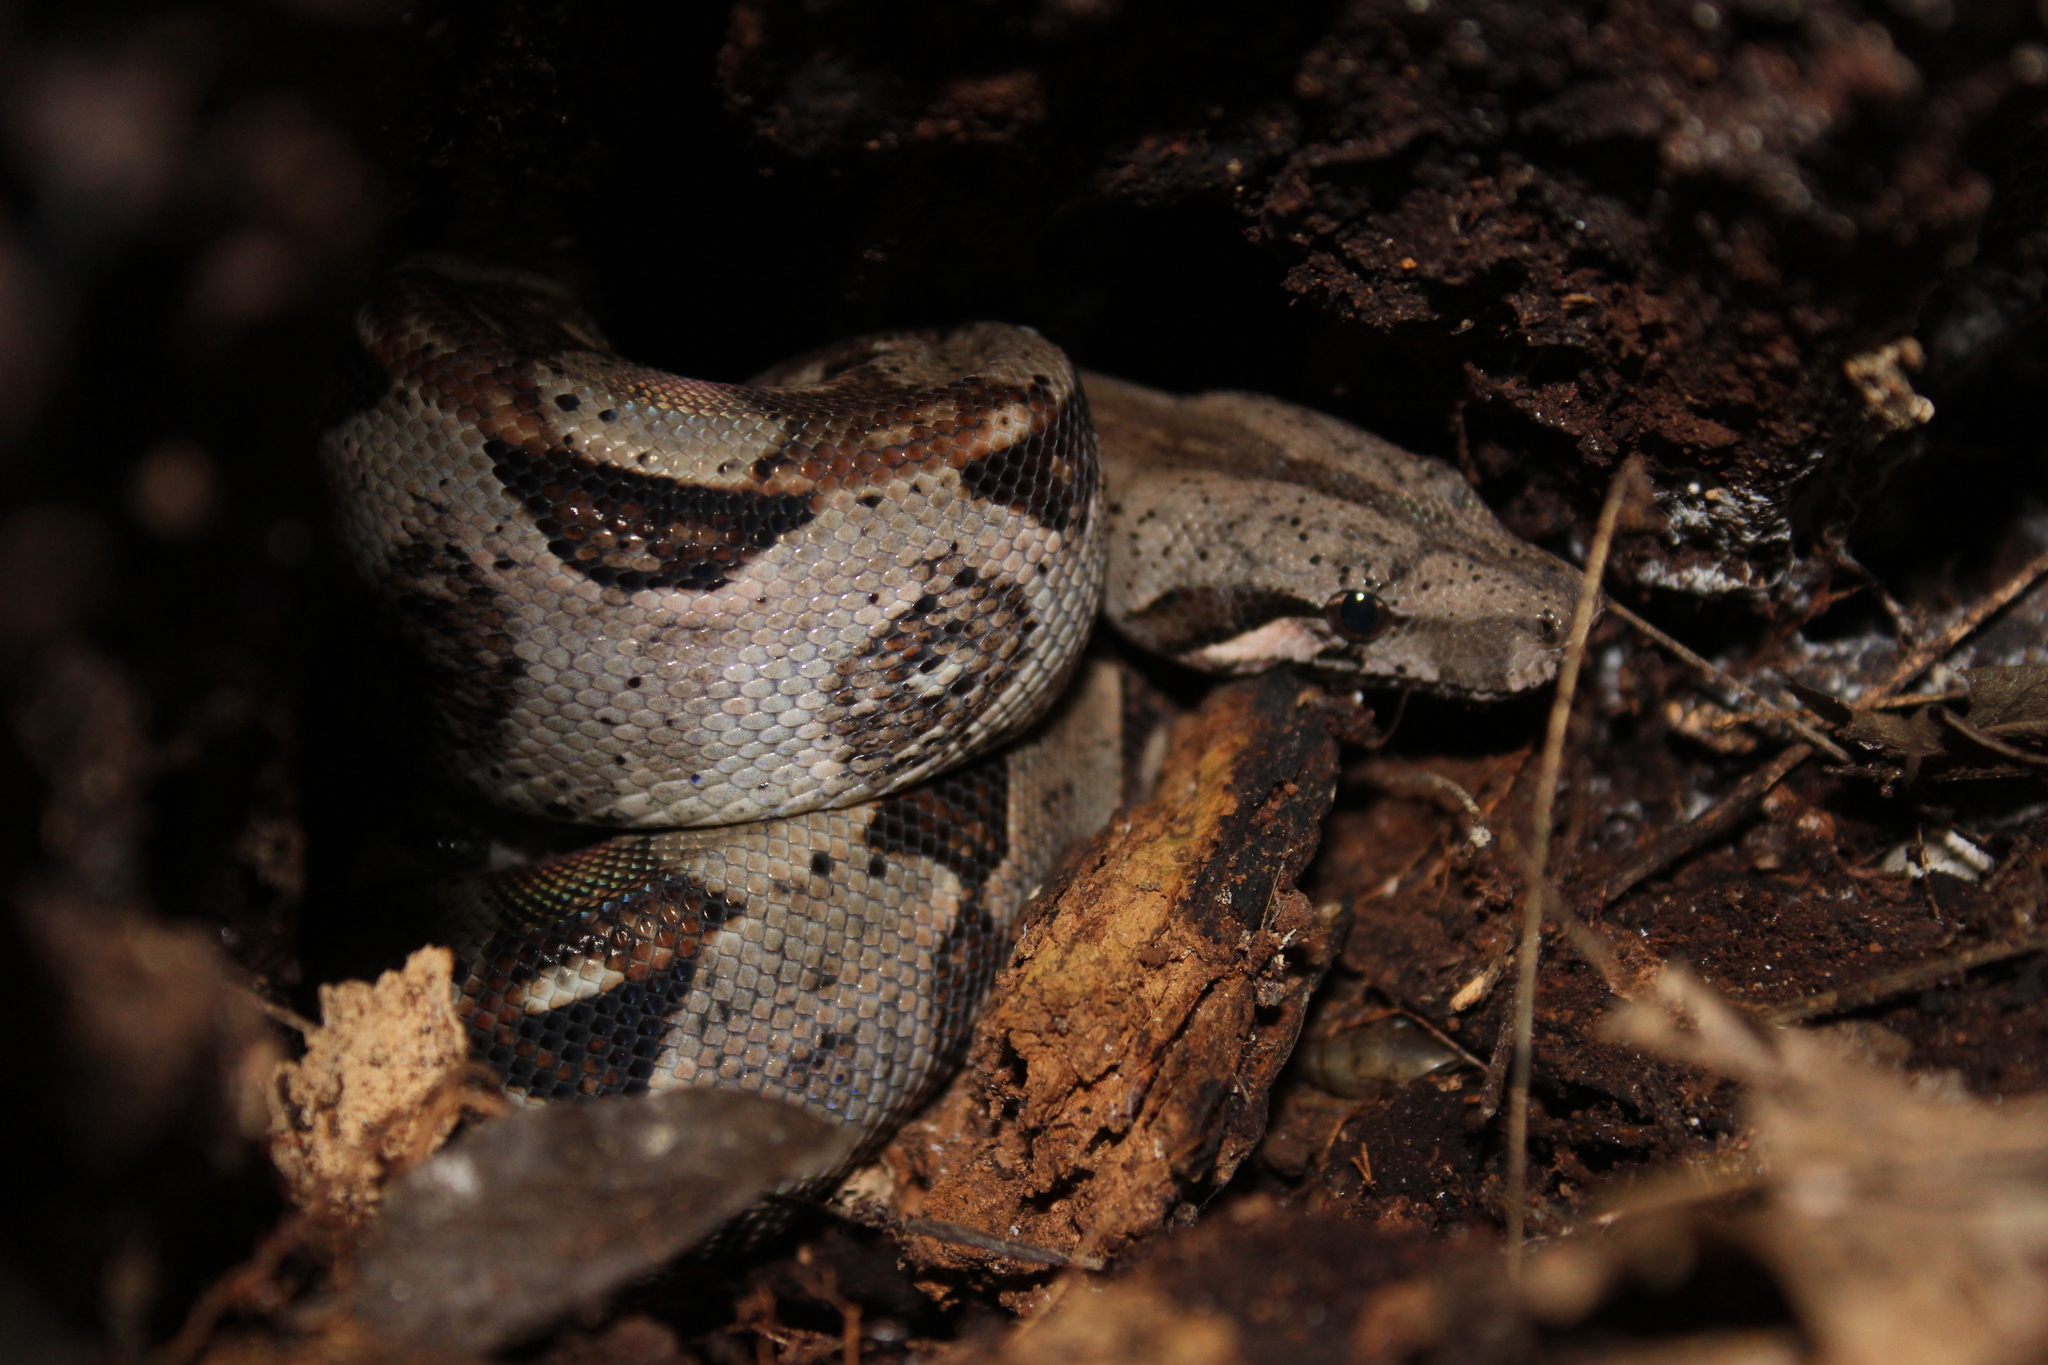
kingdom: Animalia
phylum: Chordata
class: Squamata
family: Boidae
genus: Boa
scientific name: Boa imperator
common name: Central american boa
